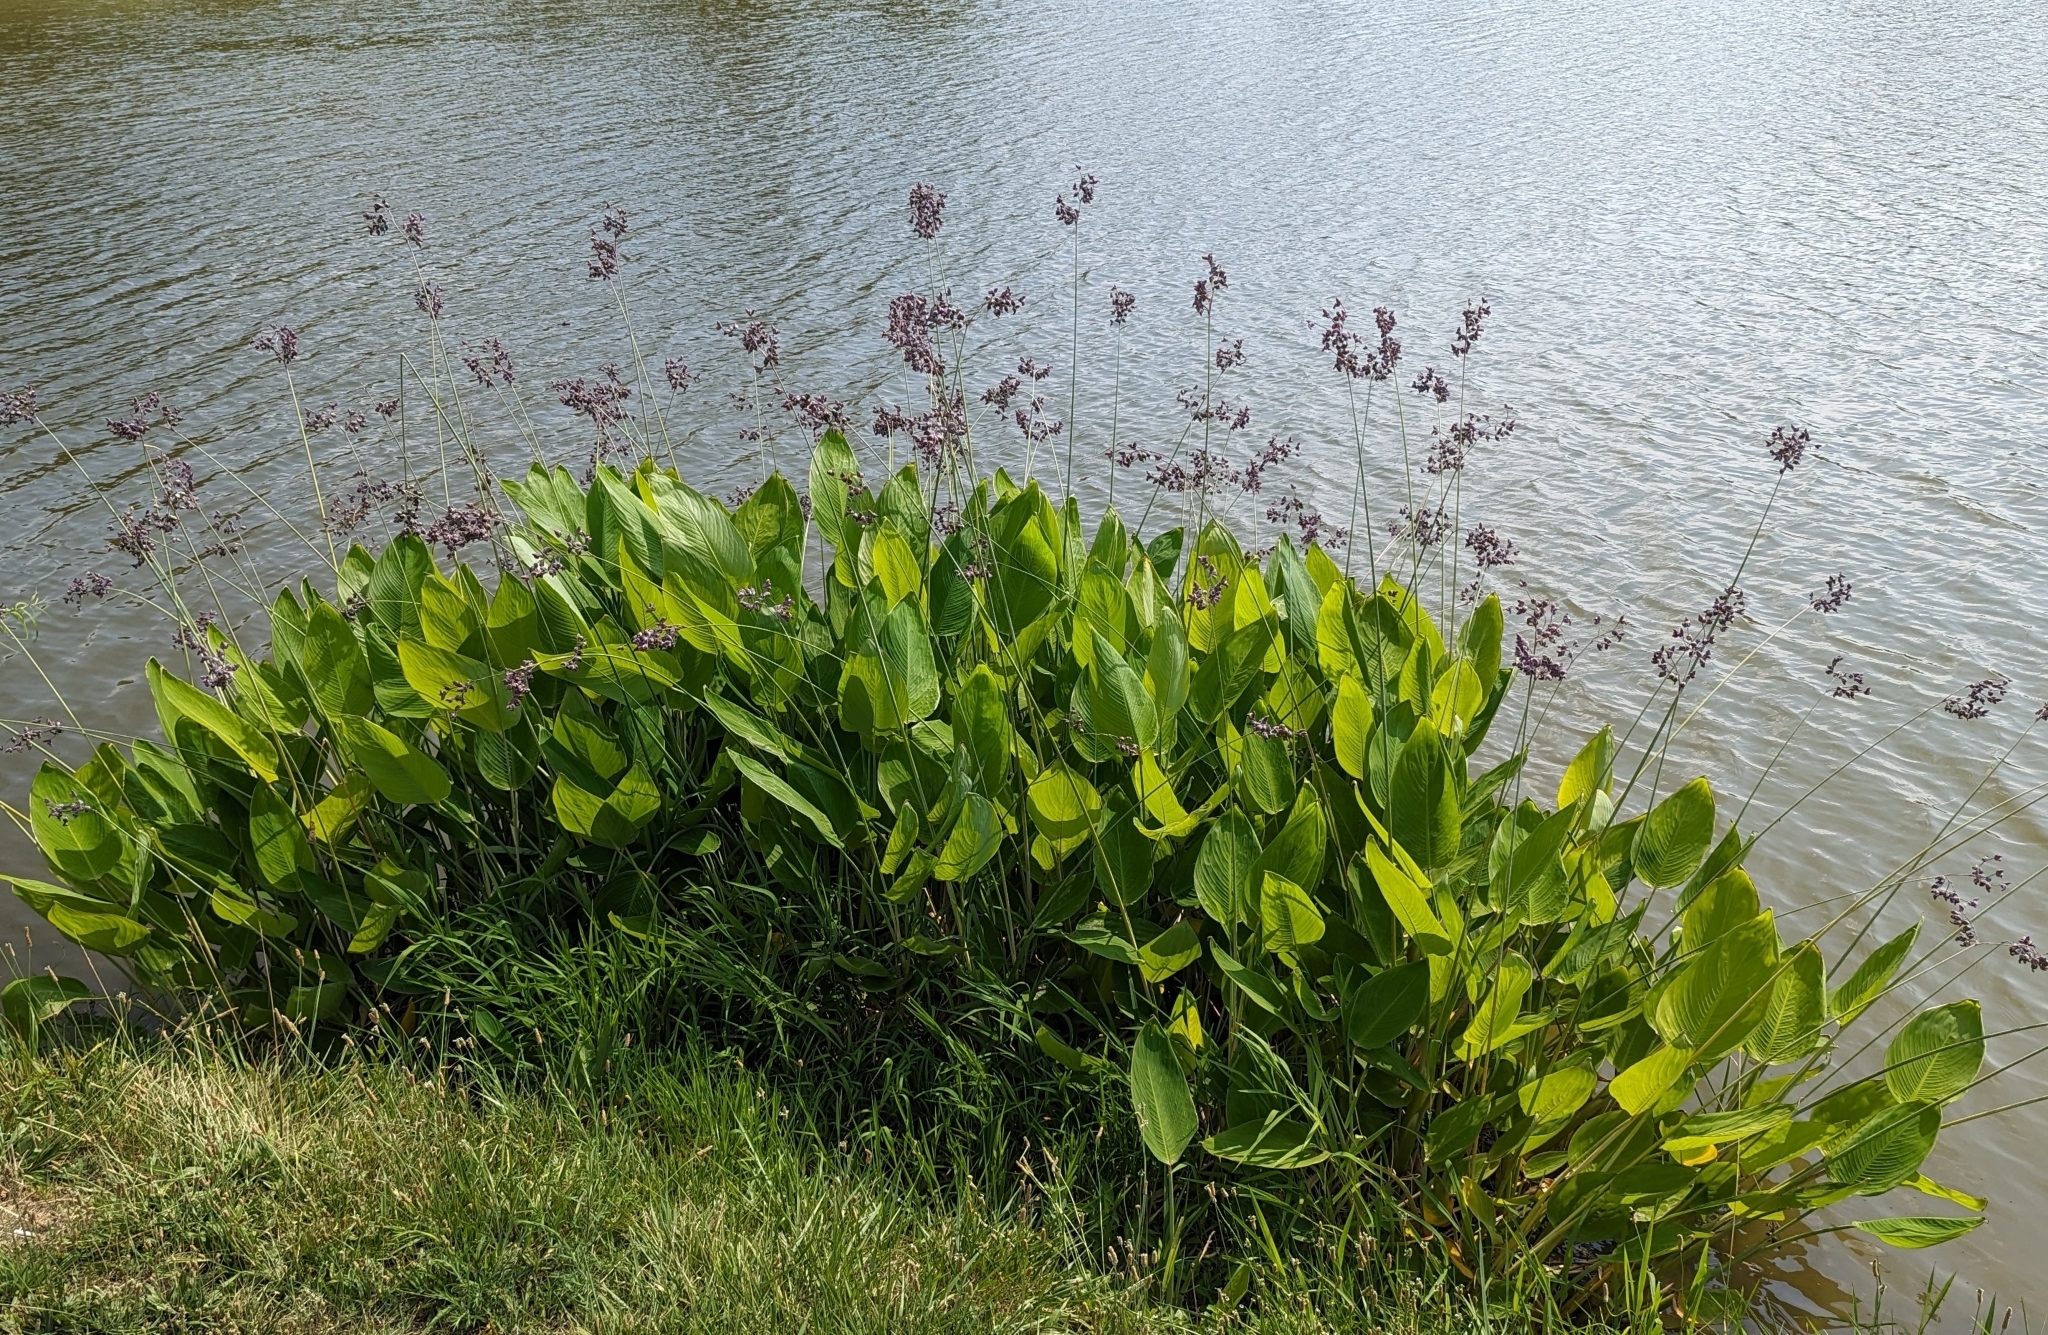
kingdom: Plantae
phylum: Tracheophyta
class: Liliopsida
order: Zingiberales
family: Marantaceae
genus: Thalia
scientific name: Thalia dealbata
